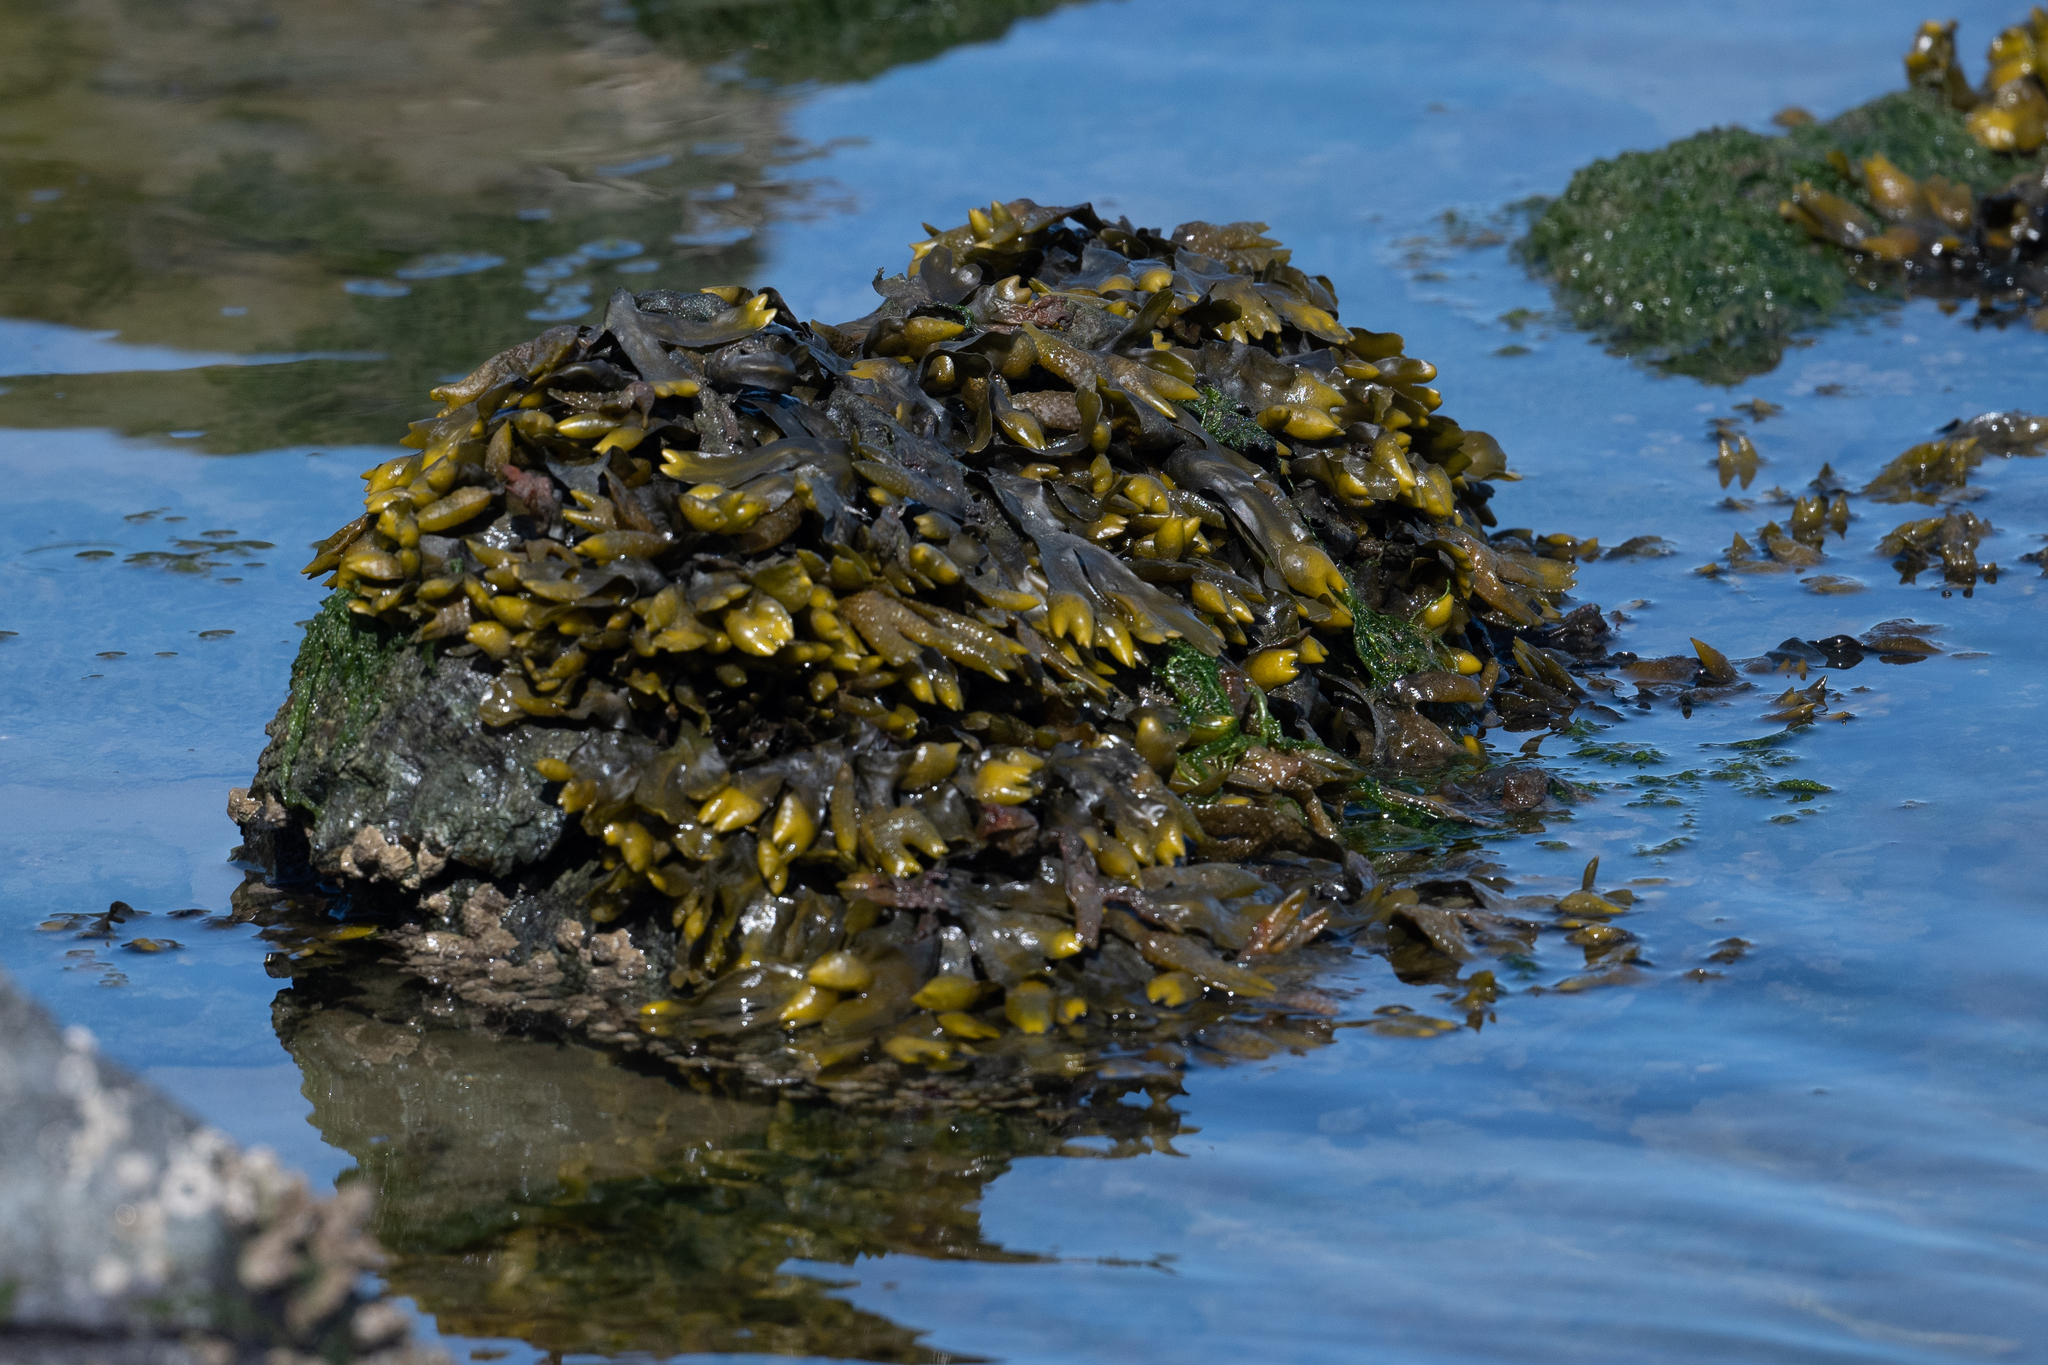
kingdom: Chromista
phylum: Ochrophyta
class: Phaeophyceae
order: Fucales
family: Fucaceae
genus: Fucus
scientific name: Fucus distichus
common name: Rockweed
